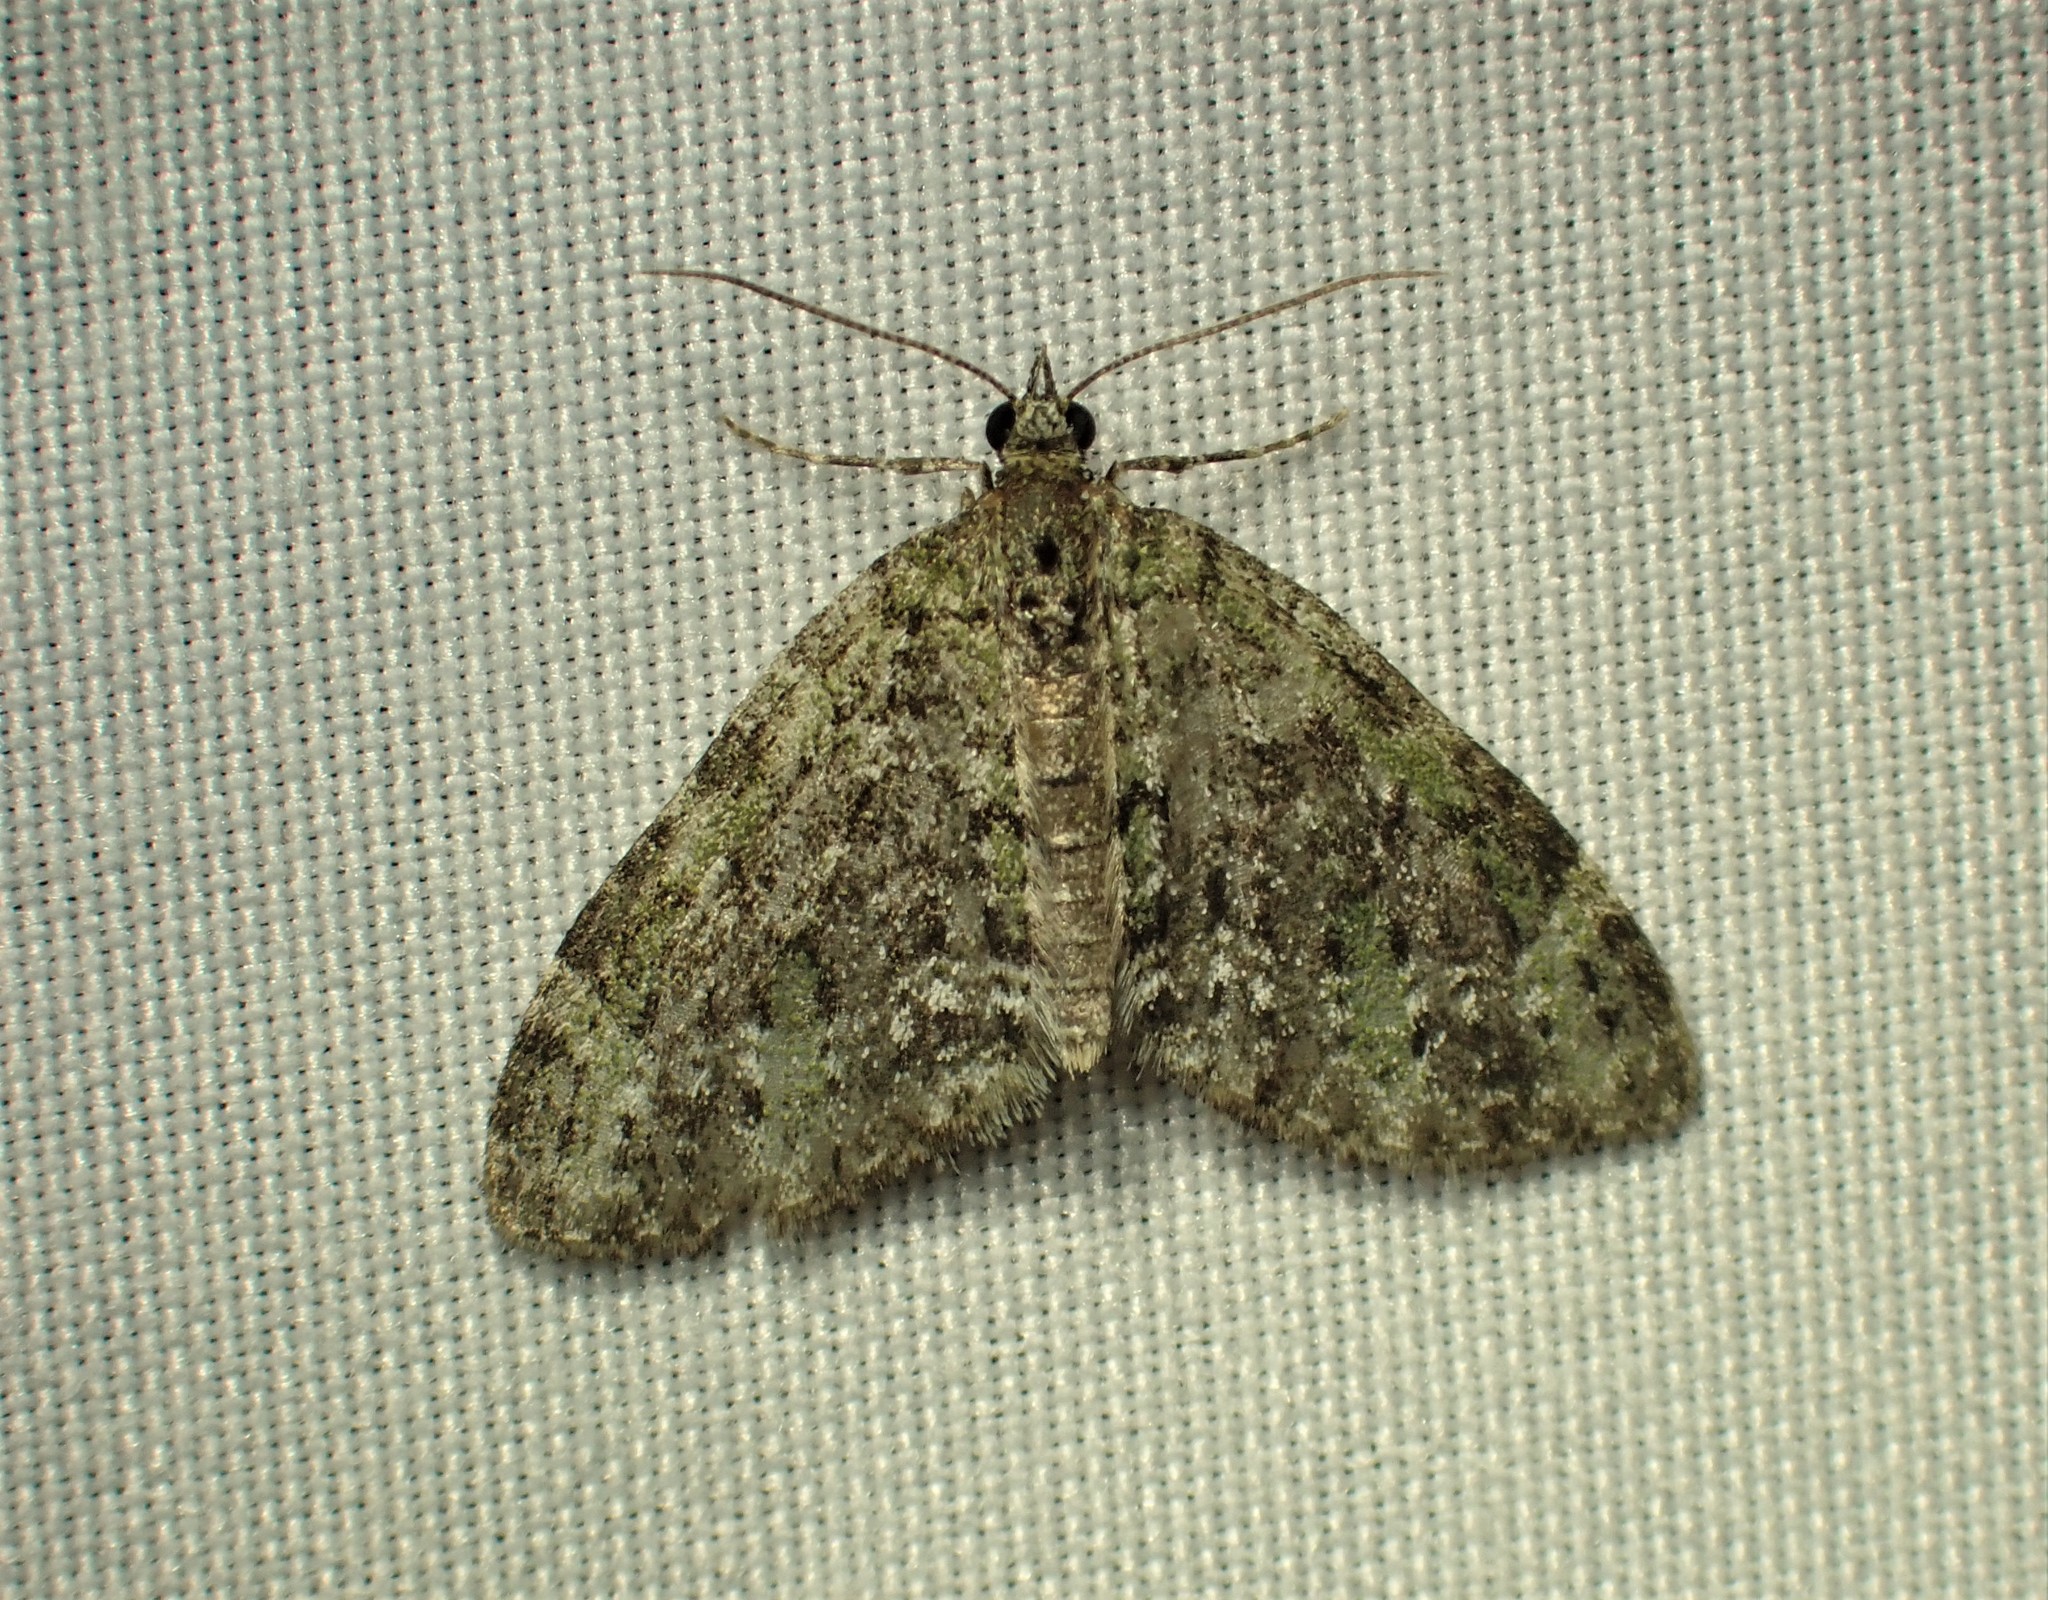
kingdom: Animalia
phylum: Arthropoda
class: Insecta
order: Lepidoptera
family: Geometridae
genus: Acasis
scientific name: Acasis viridata
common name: Olive-and-black carpet moth
